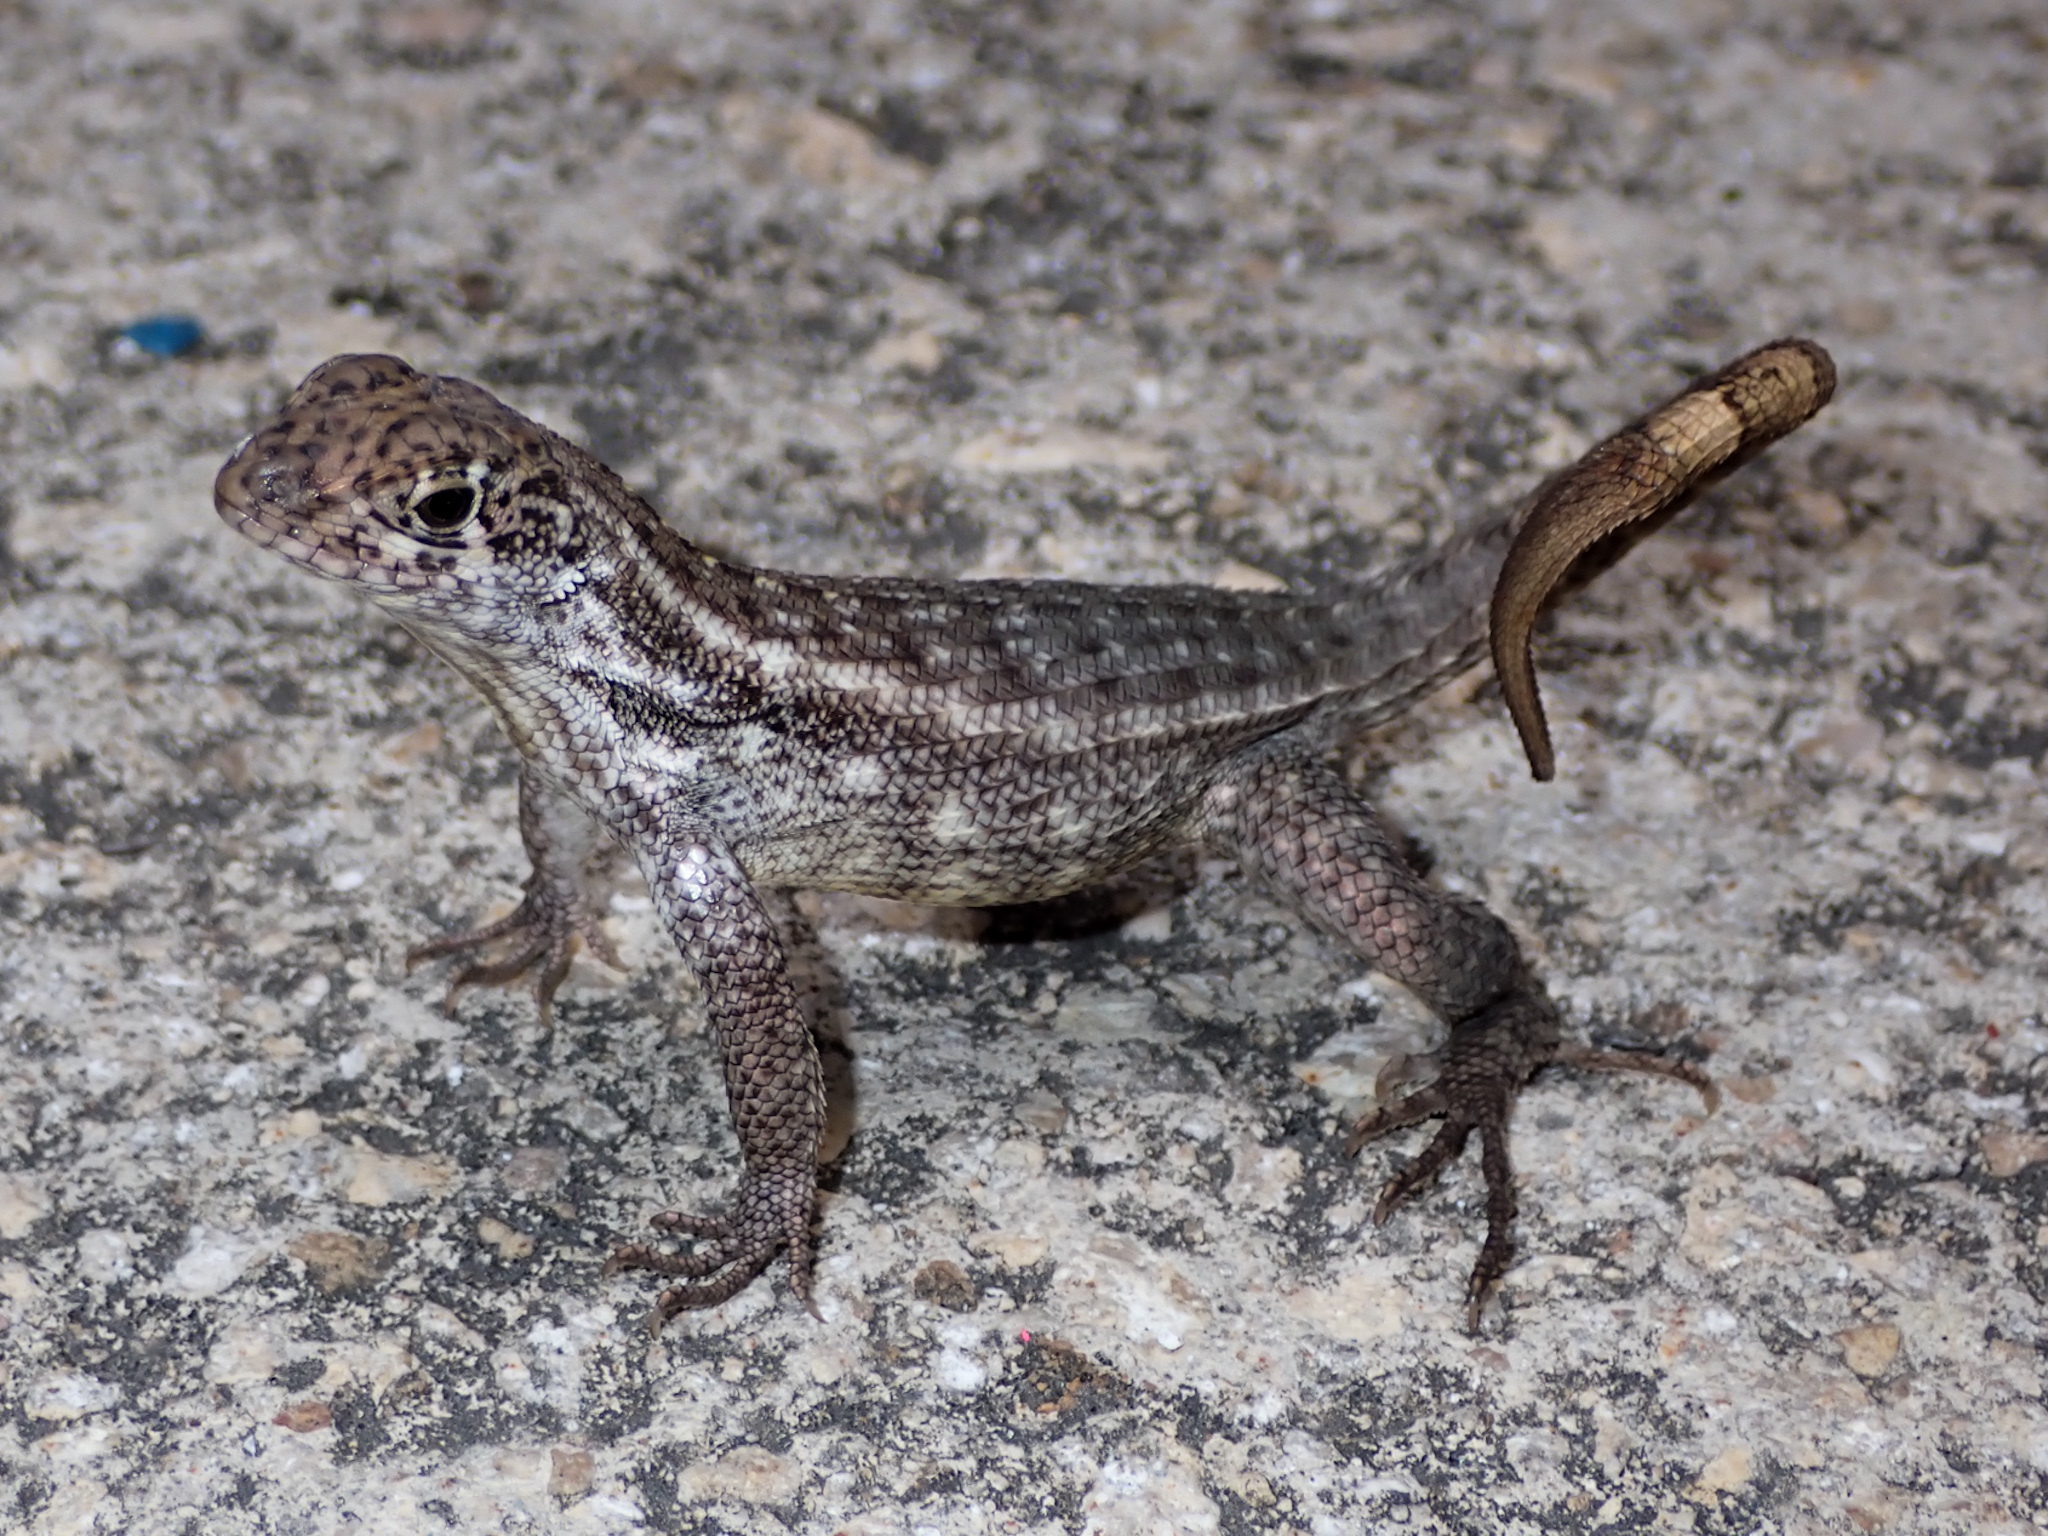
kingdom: Animalia
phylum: Chordata
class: Squamata
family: Leiocephalidae
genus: Leiocephalus
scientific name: Leiocephalus varius
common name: Cayman curlytail
